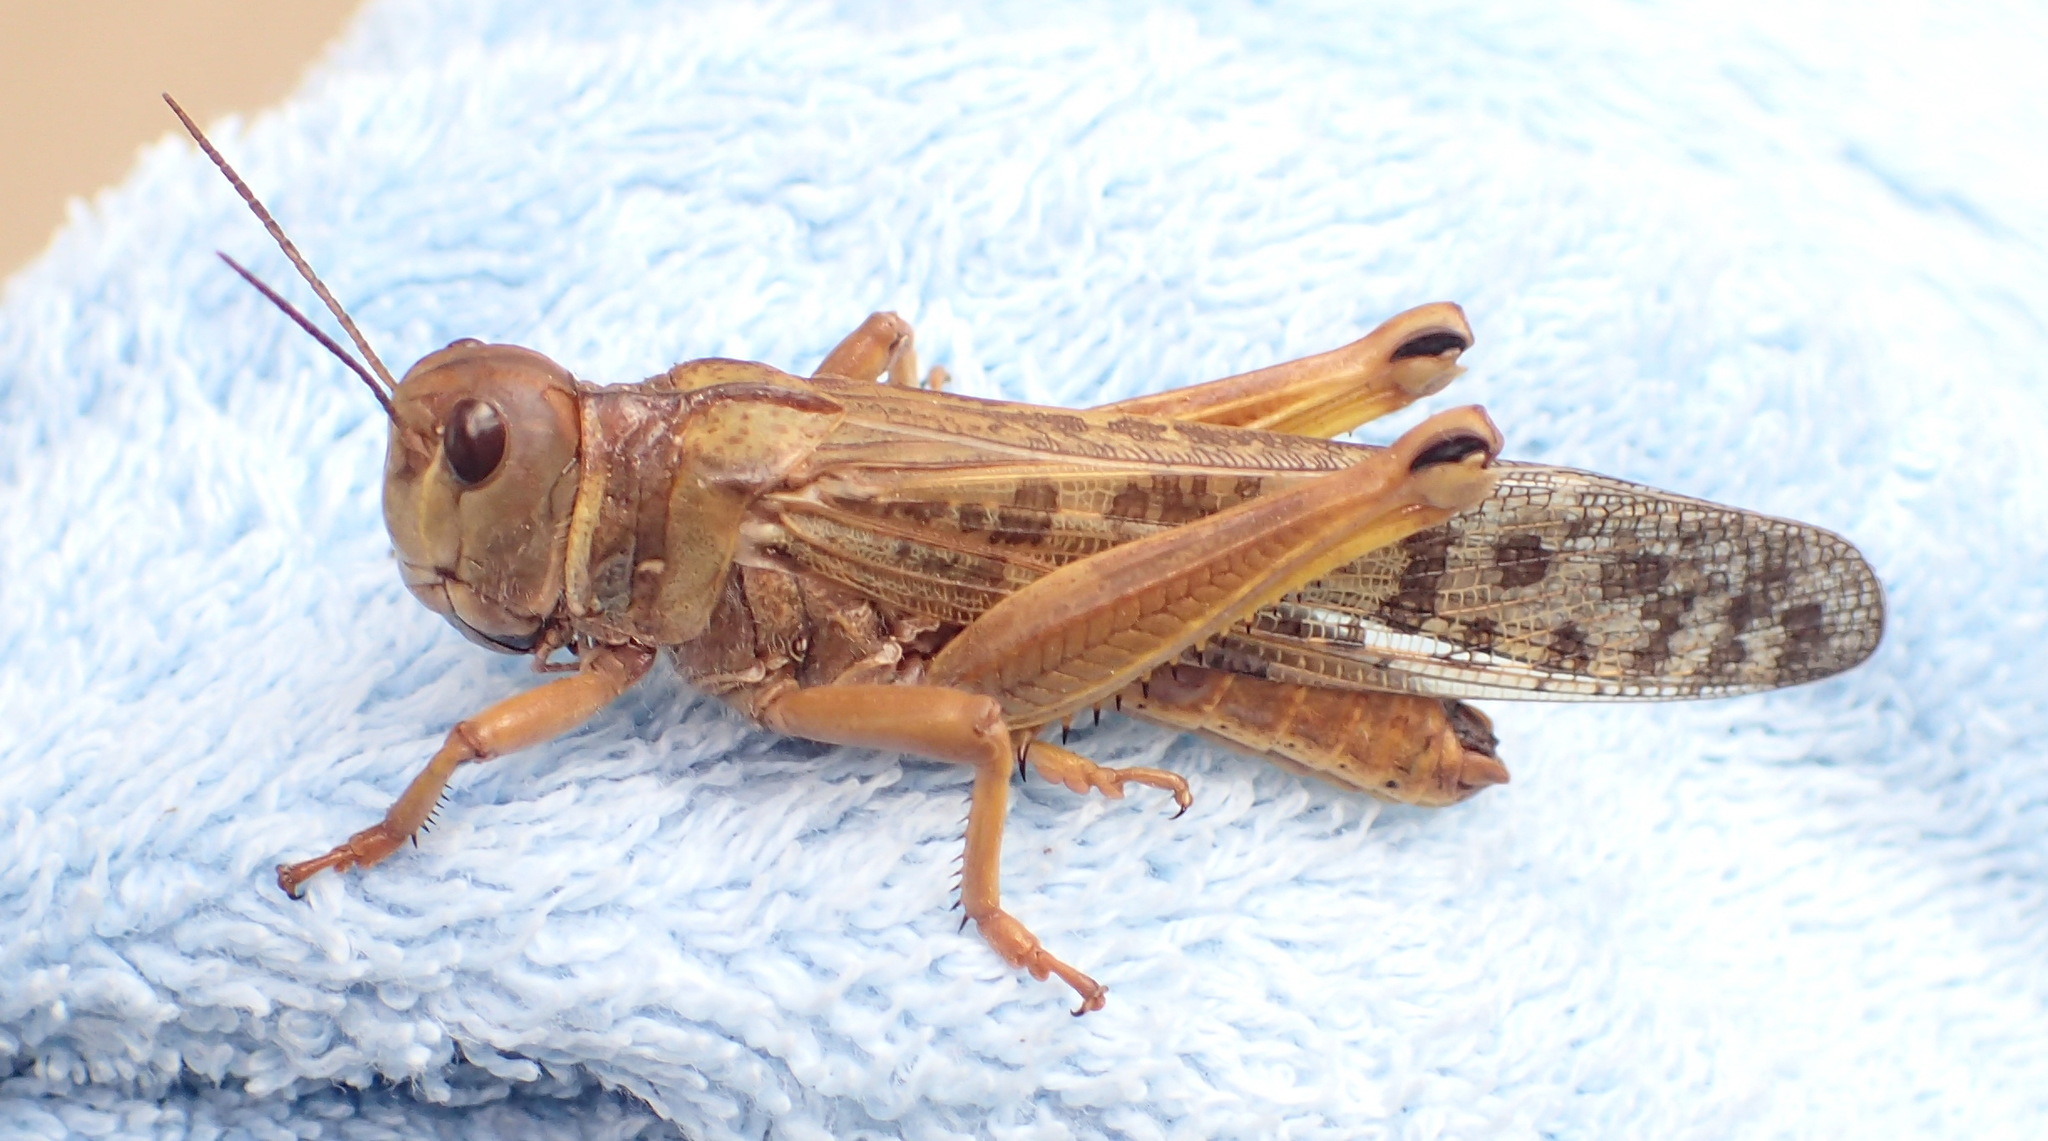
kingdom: Animalia
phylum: Arthropoda
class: Insecta
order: Orthoptera
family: Acrididae
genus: Locustana
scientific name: Locustana pardalina
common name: Brown locust
